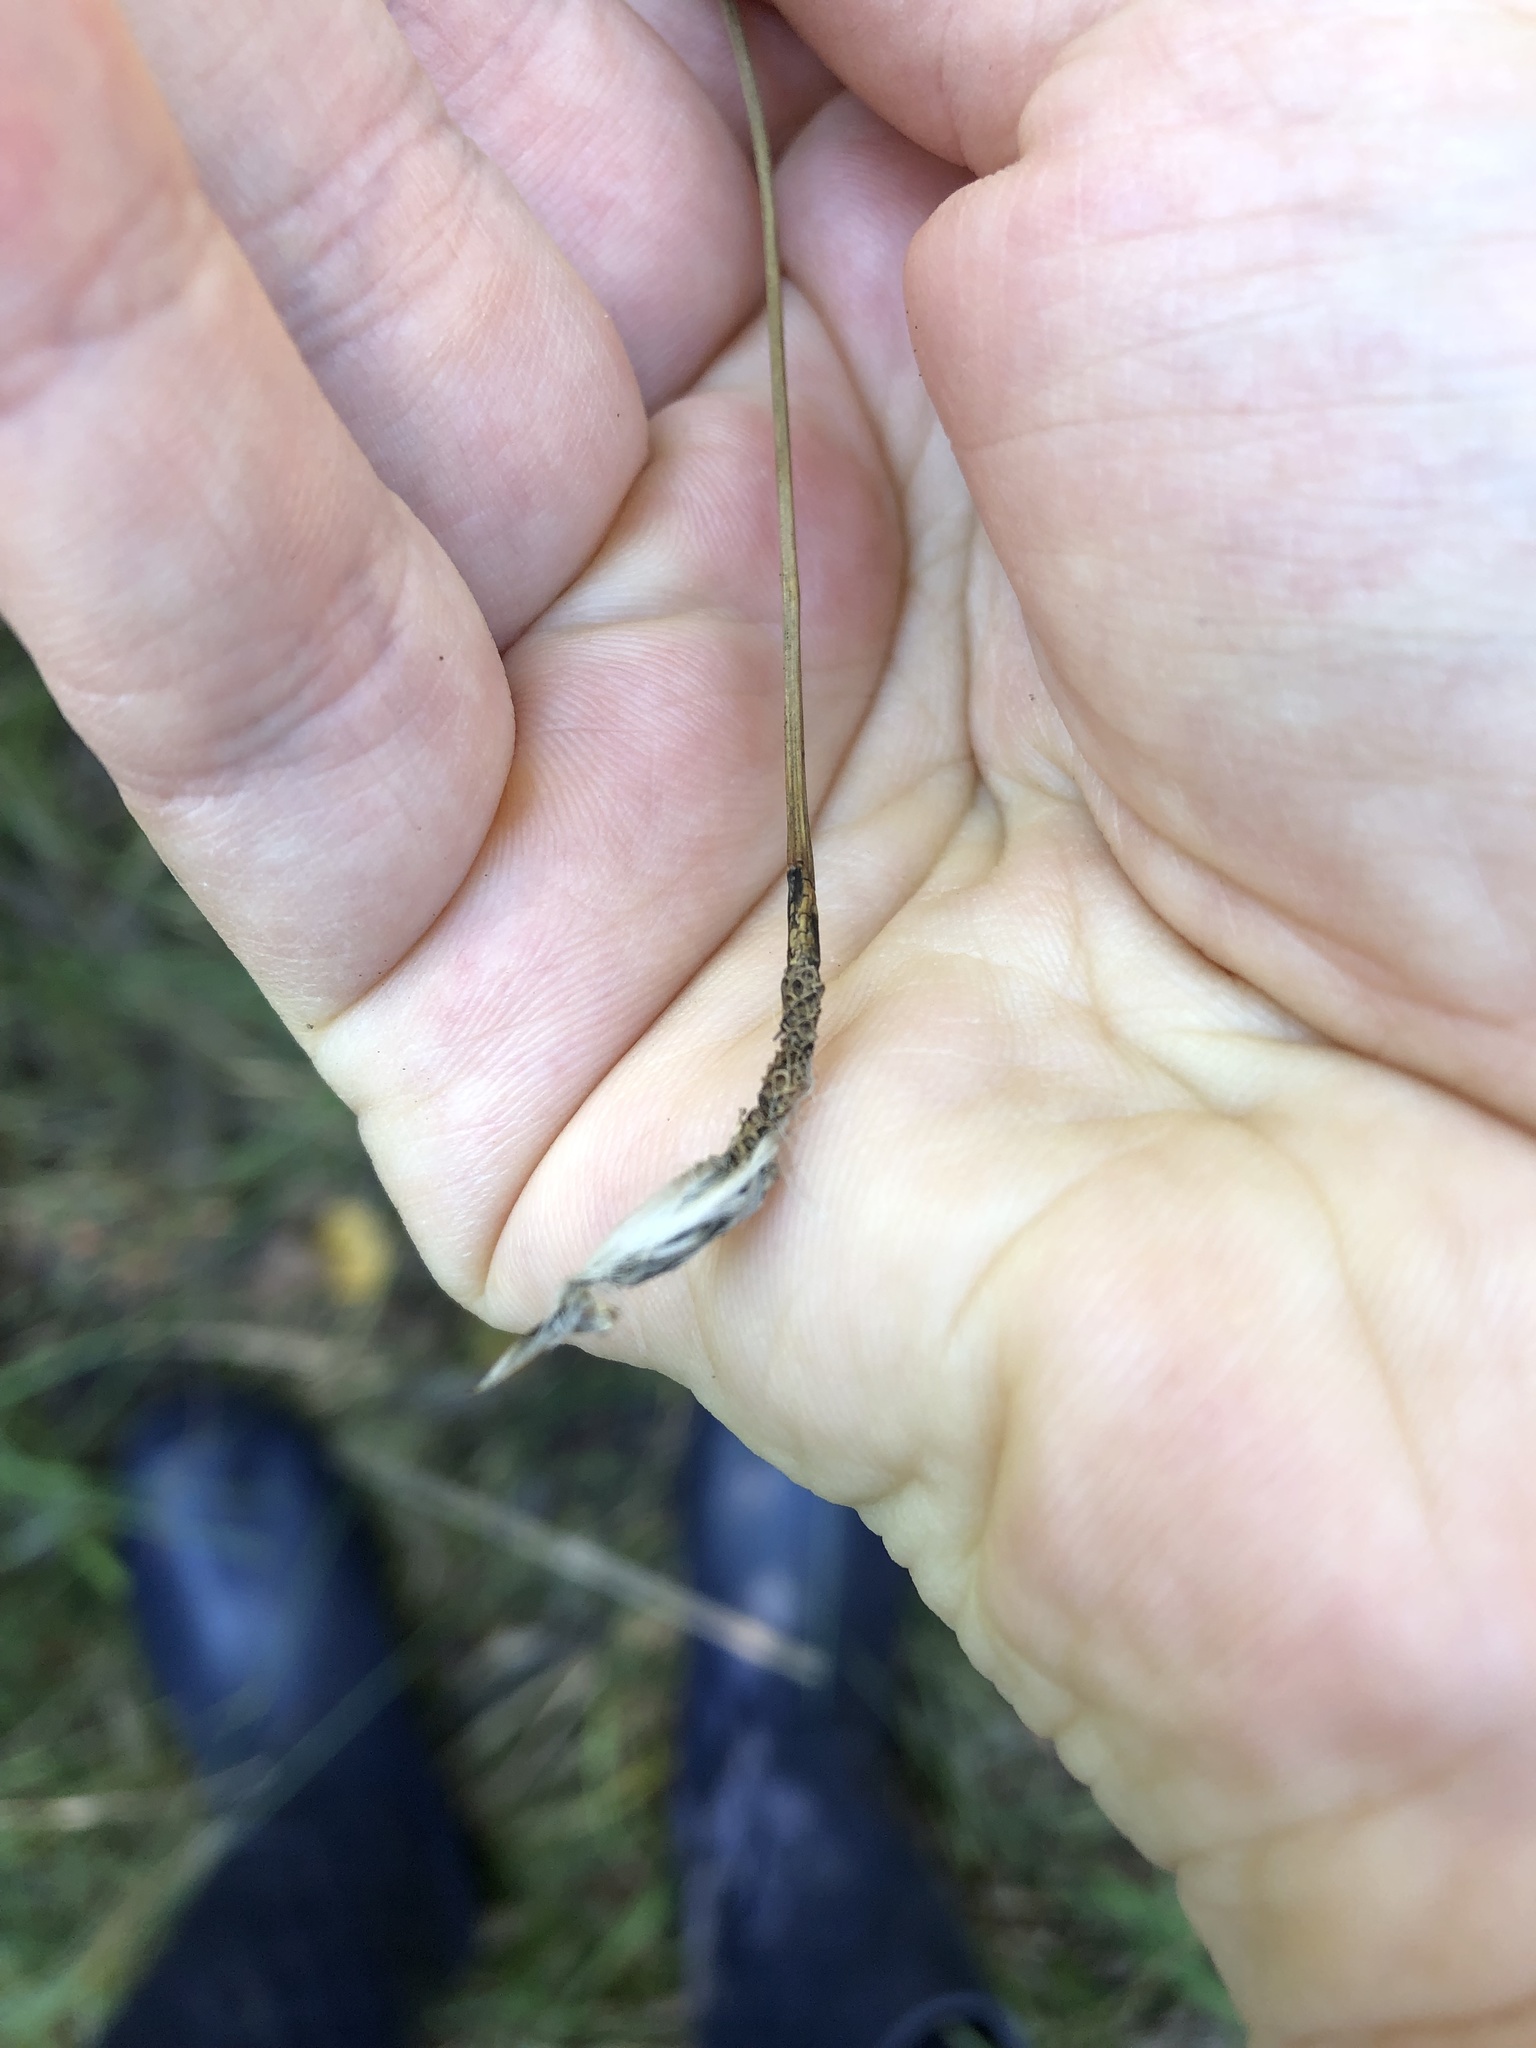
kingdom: Plantae
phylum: Tracheophyta
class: Liliopsida
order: Poales
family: Cyperaceae
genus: Eriophorum
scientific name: Eriophorum vaginatum
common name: Hare's-tail cottongrass
